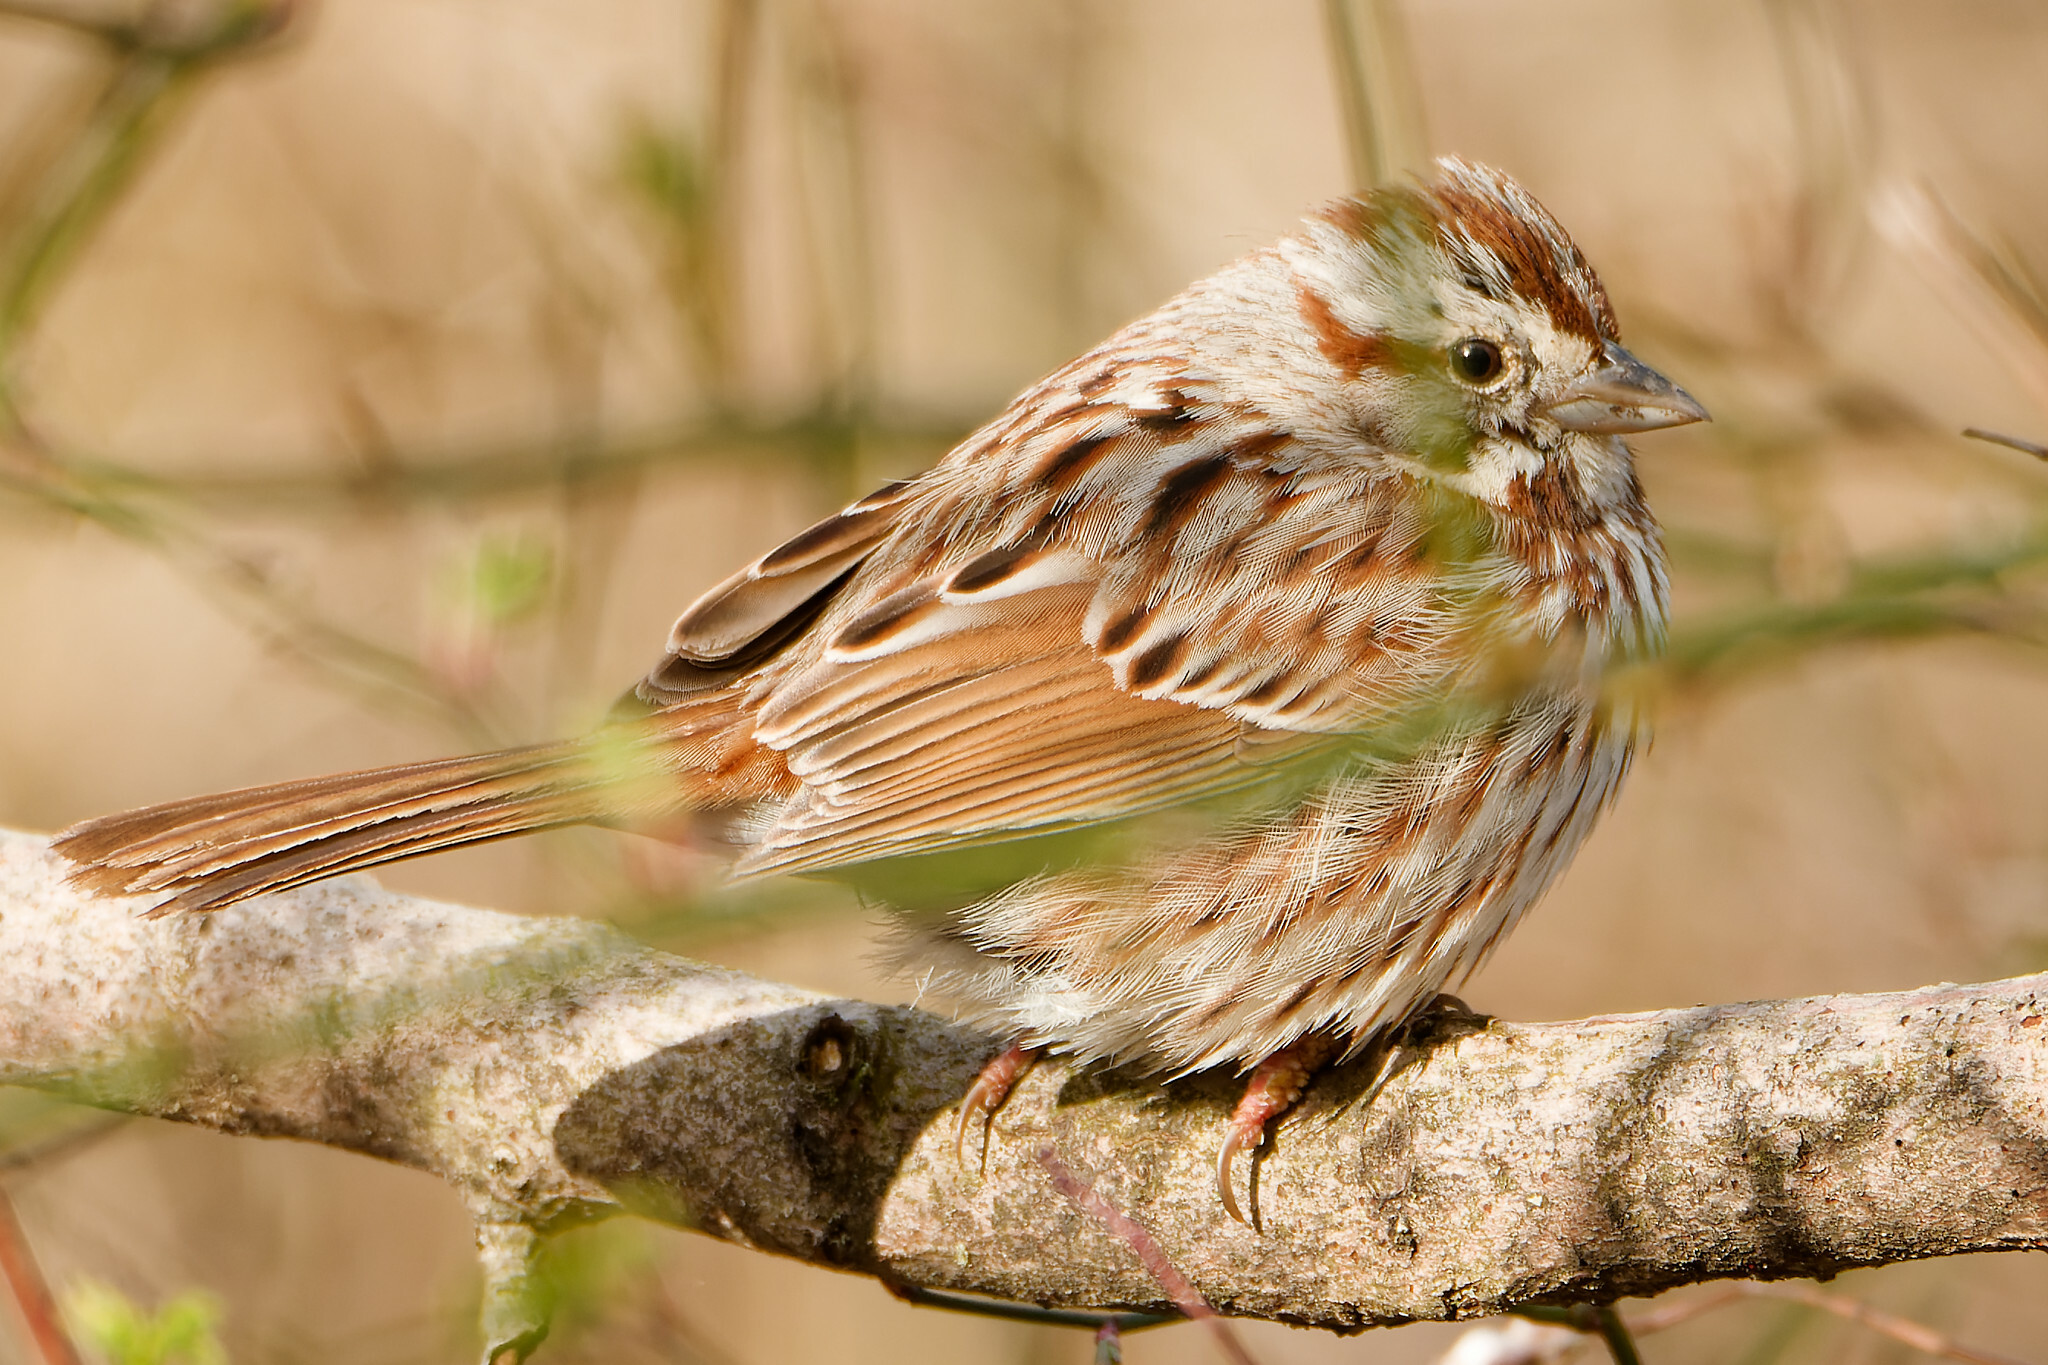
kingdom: Animalia
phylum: Chordata
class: Aves
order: Passeriformes
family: Passerellidae
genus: Melospiza
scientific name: Melospiza melodia
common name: Song sparrow
